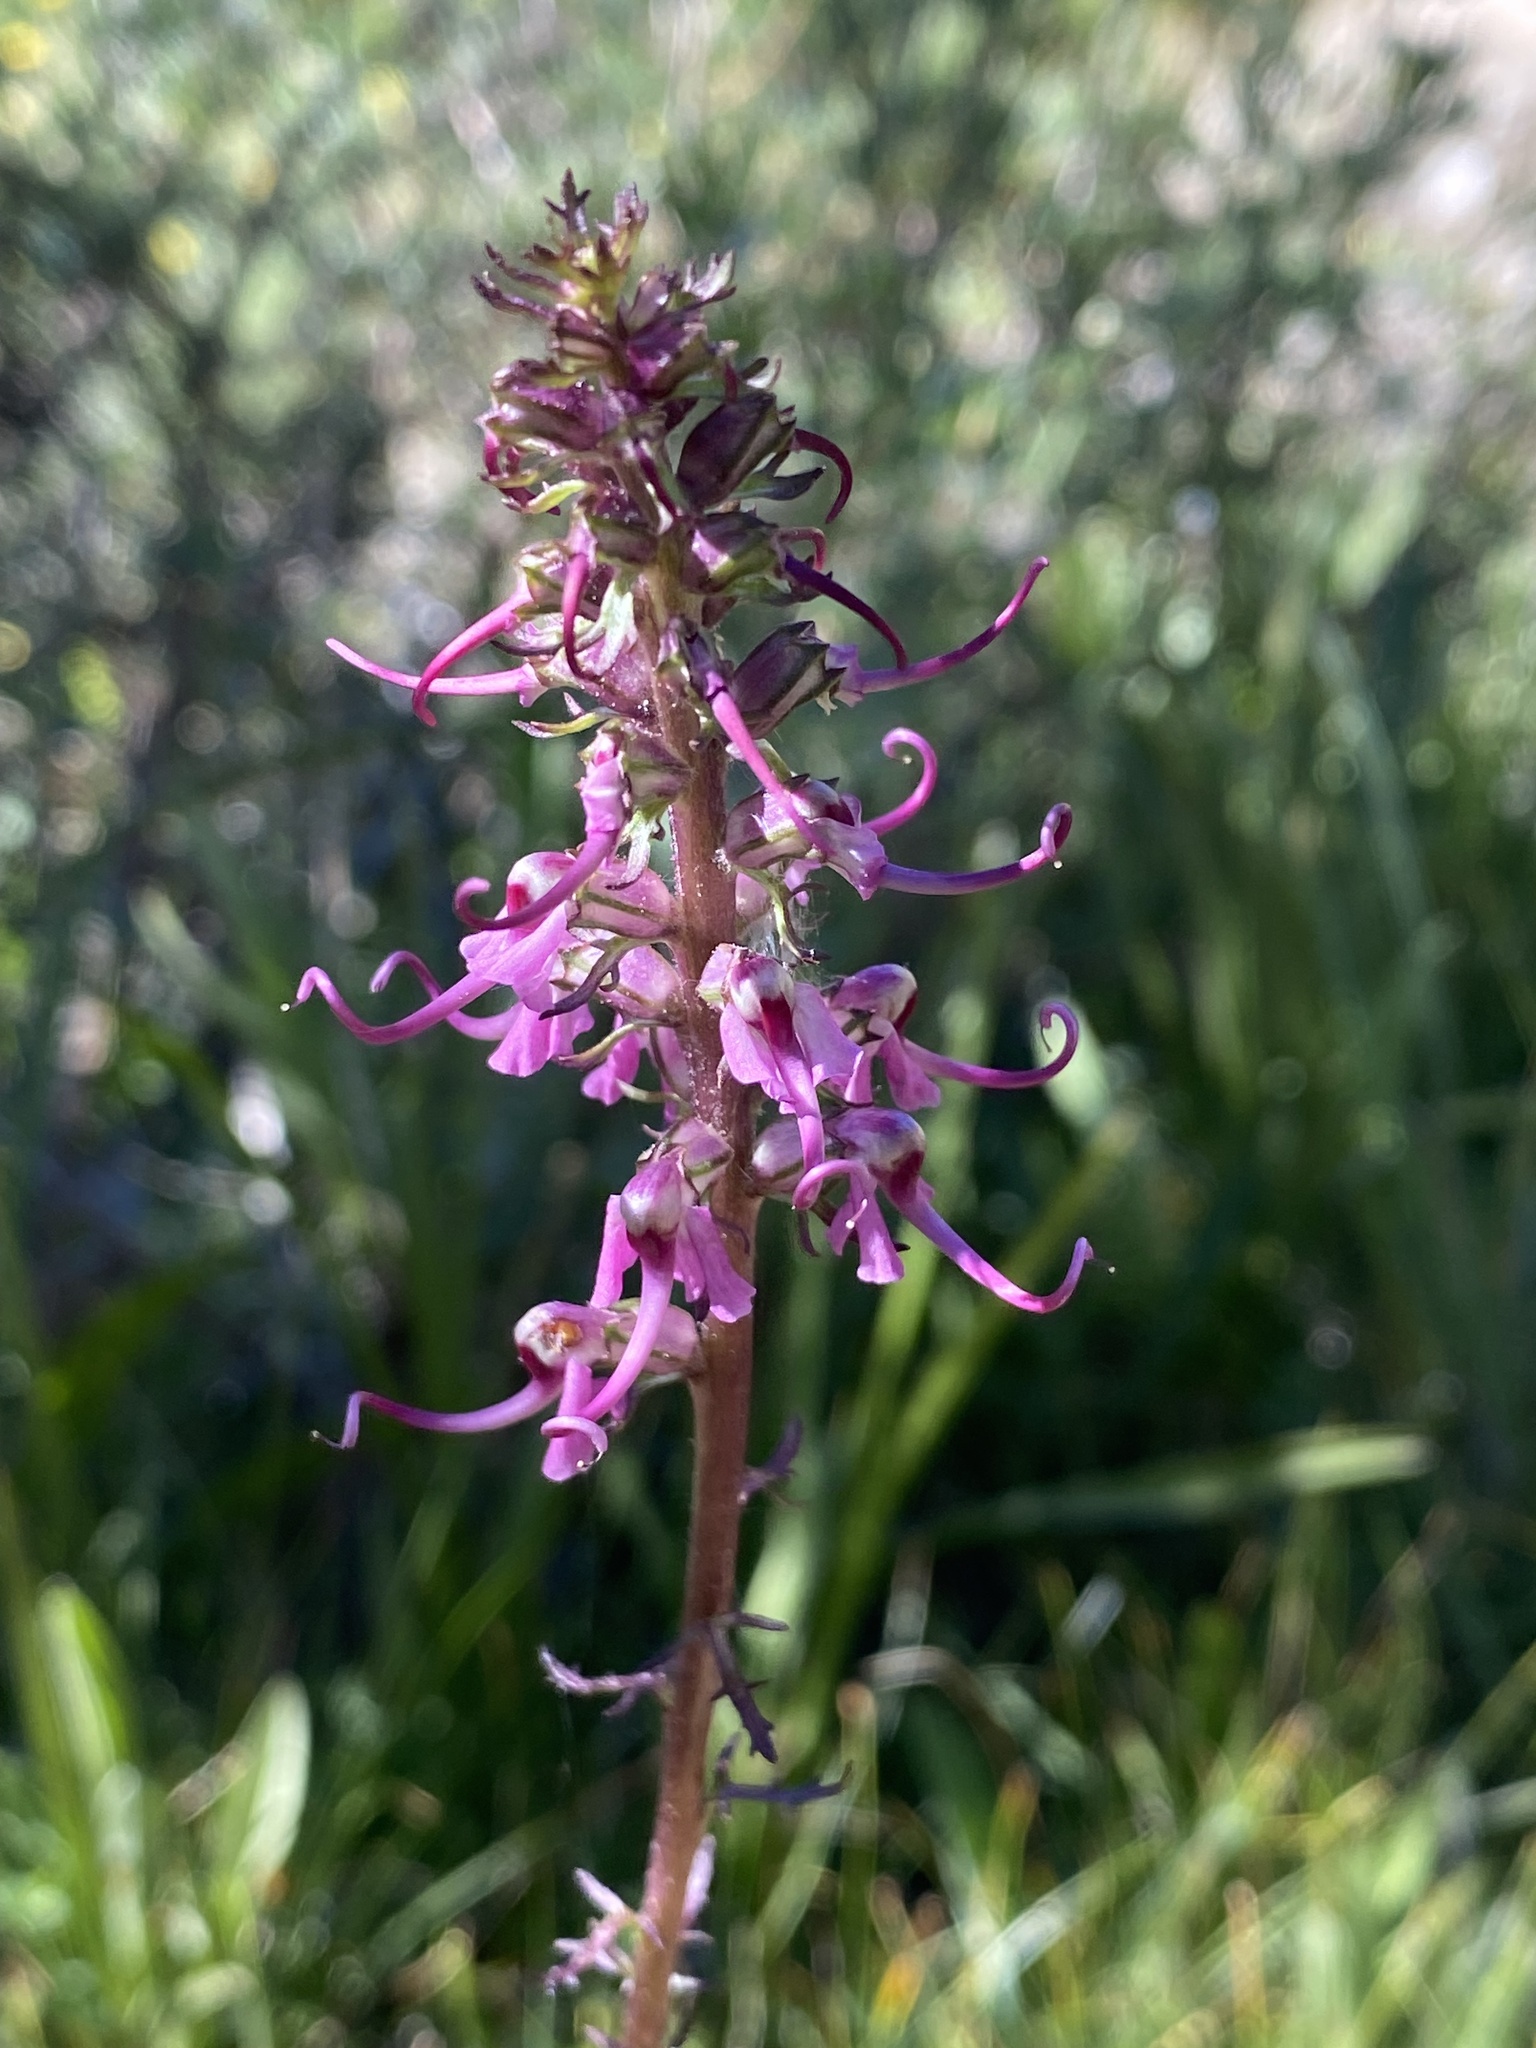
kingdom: Plantae
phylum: Tracheophyta
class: Magnoliopsida
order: Lamiales
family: Orobanchaceae
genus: Pedicularis
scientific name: Pedicularis groenlandica
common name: Elephant's-head
